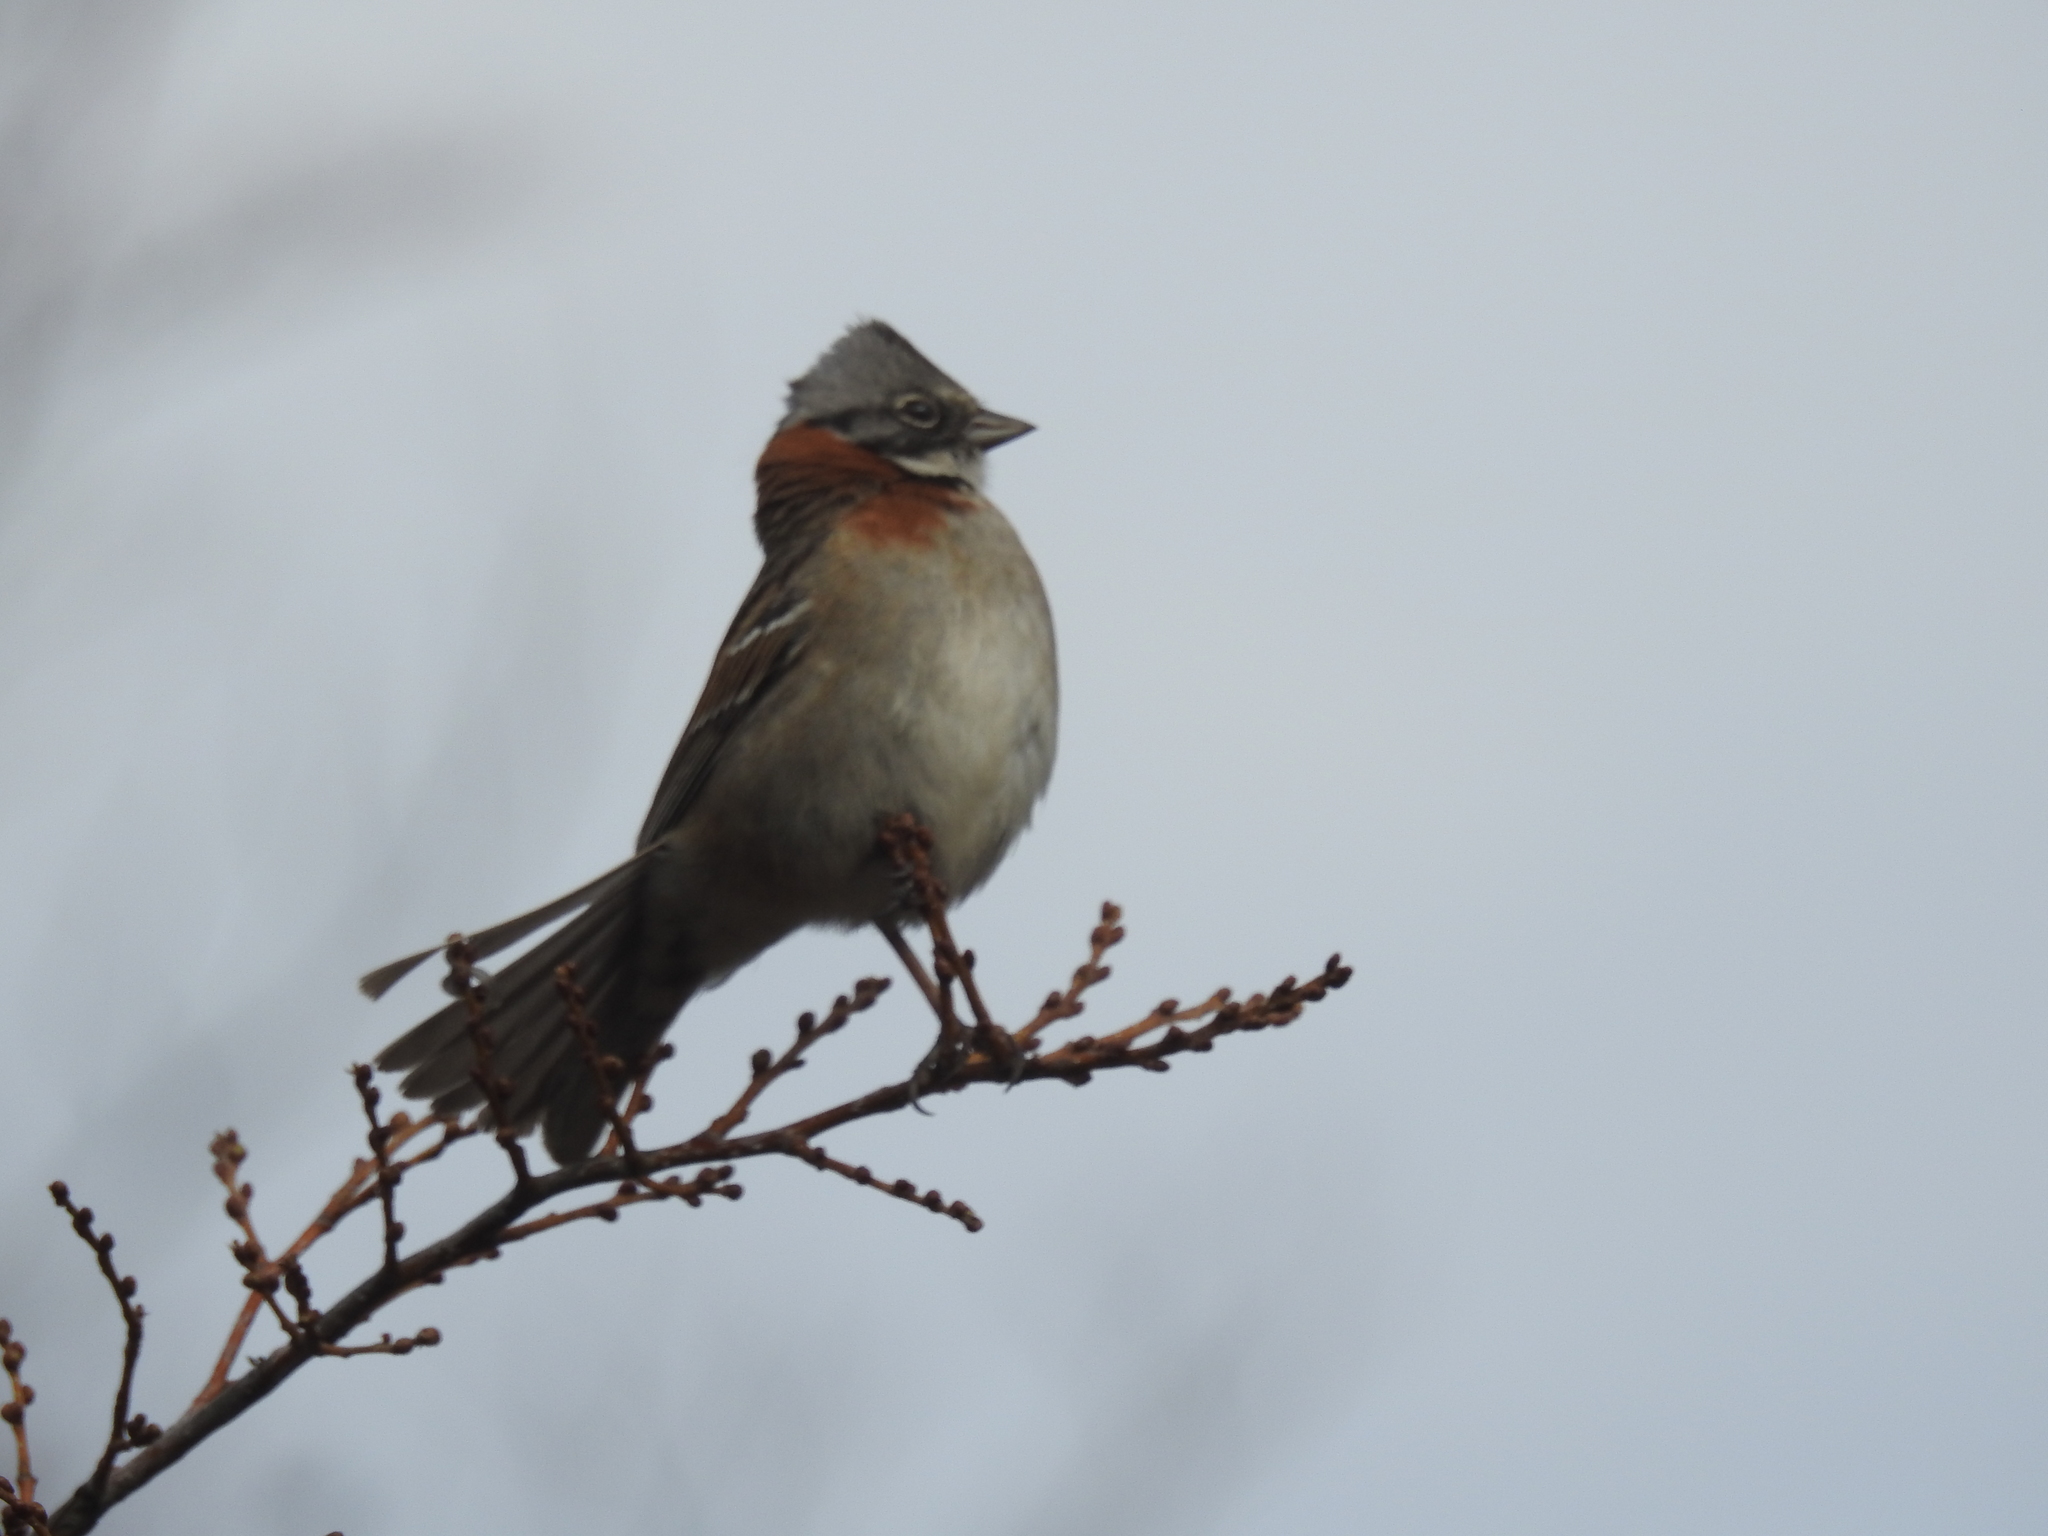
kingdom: Animalia
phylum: Chordata
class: Aves
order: Passeriformes
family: Passerellidae
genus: Zonotrichia
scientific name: Zonotrichia capensis
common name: Rufous-collared sparrow
